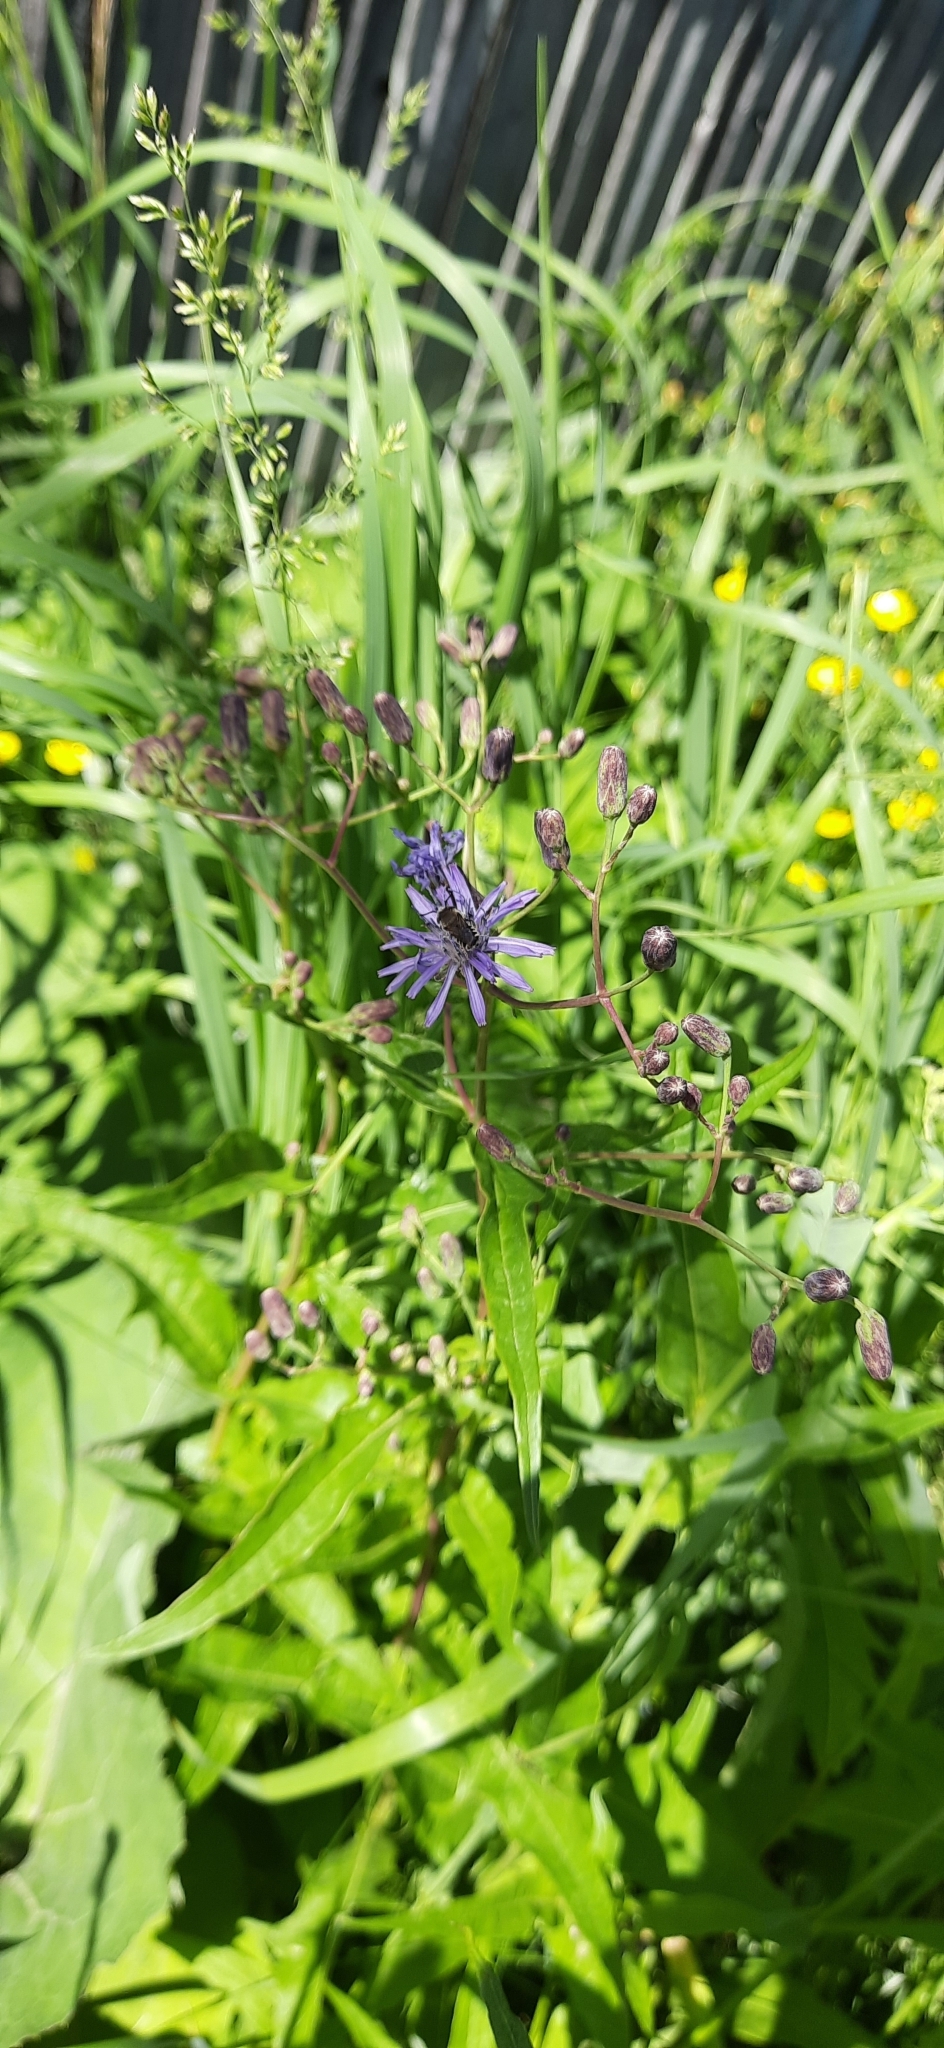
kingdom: Plantae
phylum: Tracheophyta
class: Magnoliopsida
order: Asterales
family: Asteraceae
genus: Lactuca
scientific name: Lactuca sibirica
